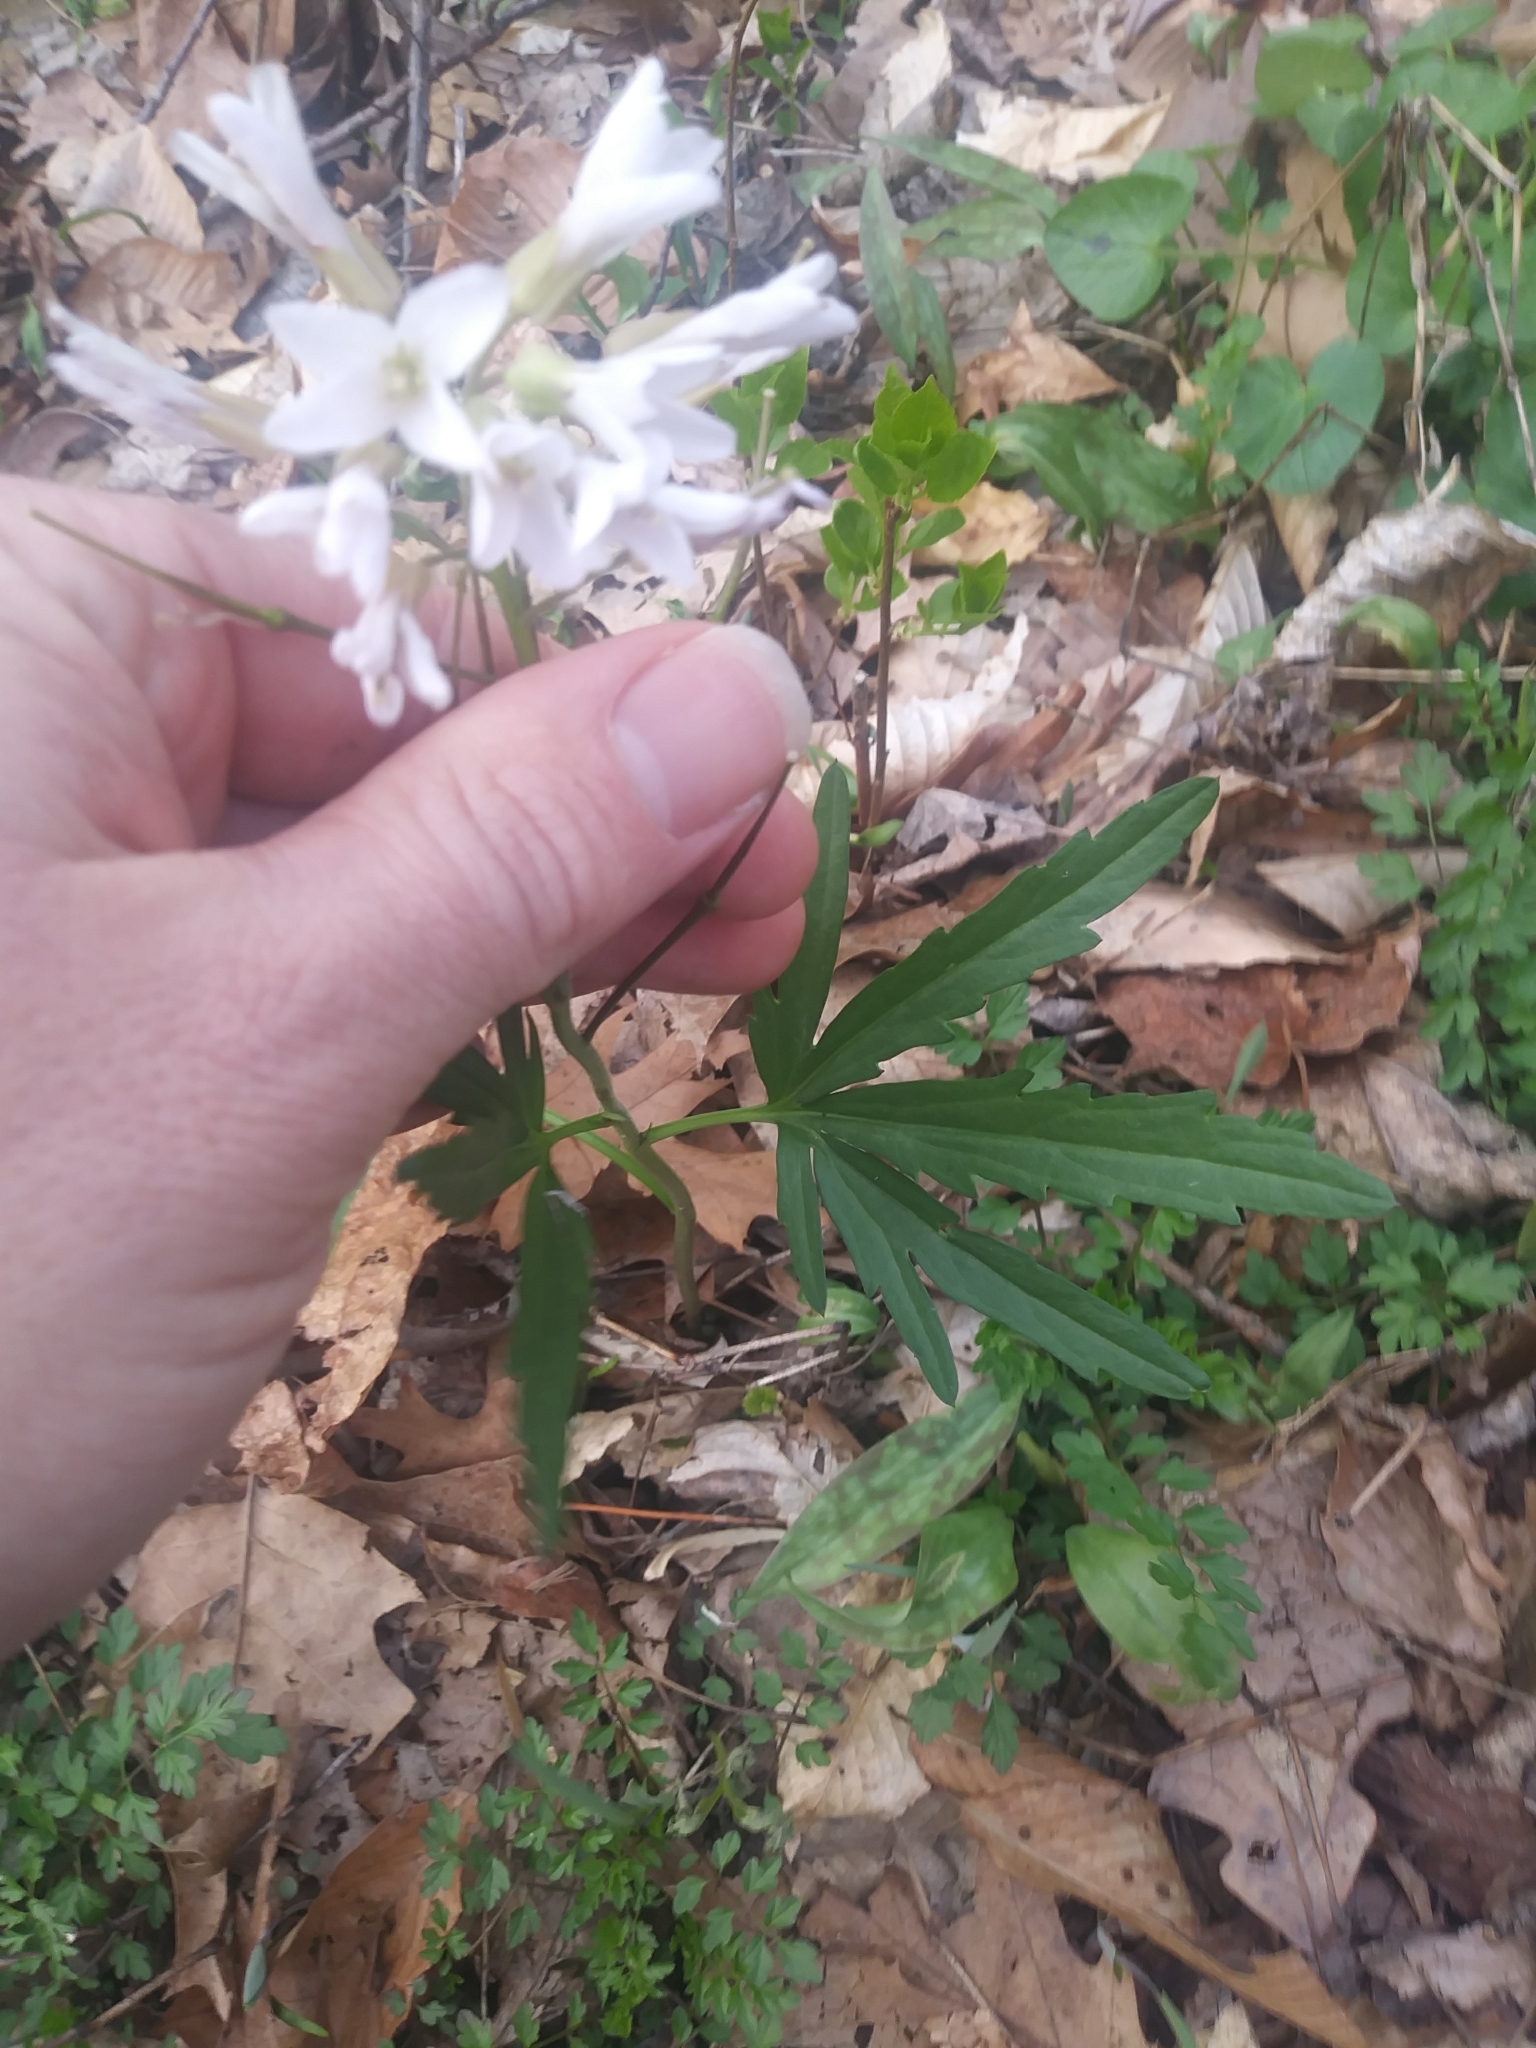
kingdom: Plantae
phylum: Tracheophyta
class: Magnoliopsida
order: Brassicales
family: Brassicaceae
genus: Cardamine
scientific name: Cardamine concatenata
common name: Cut-leaf toothcup
